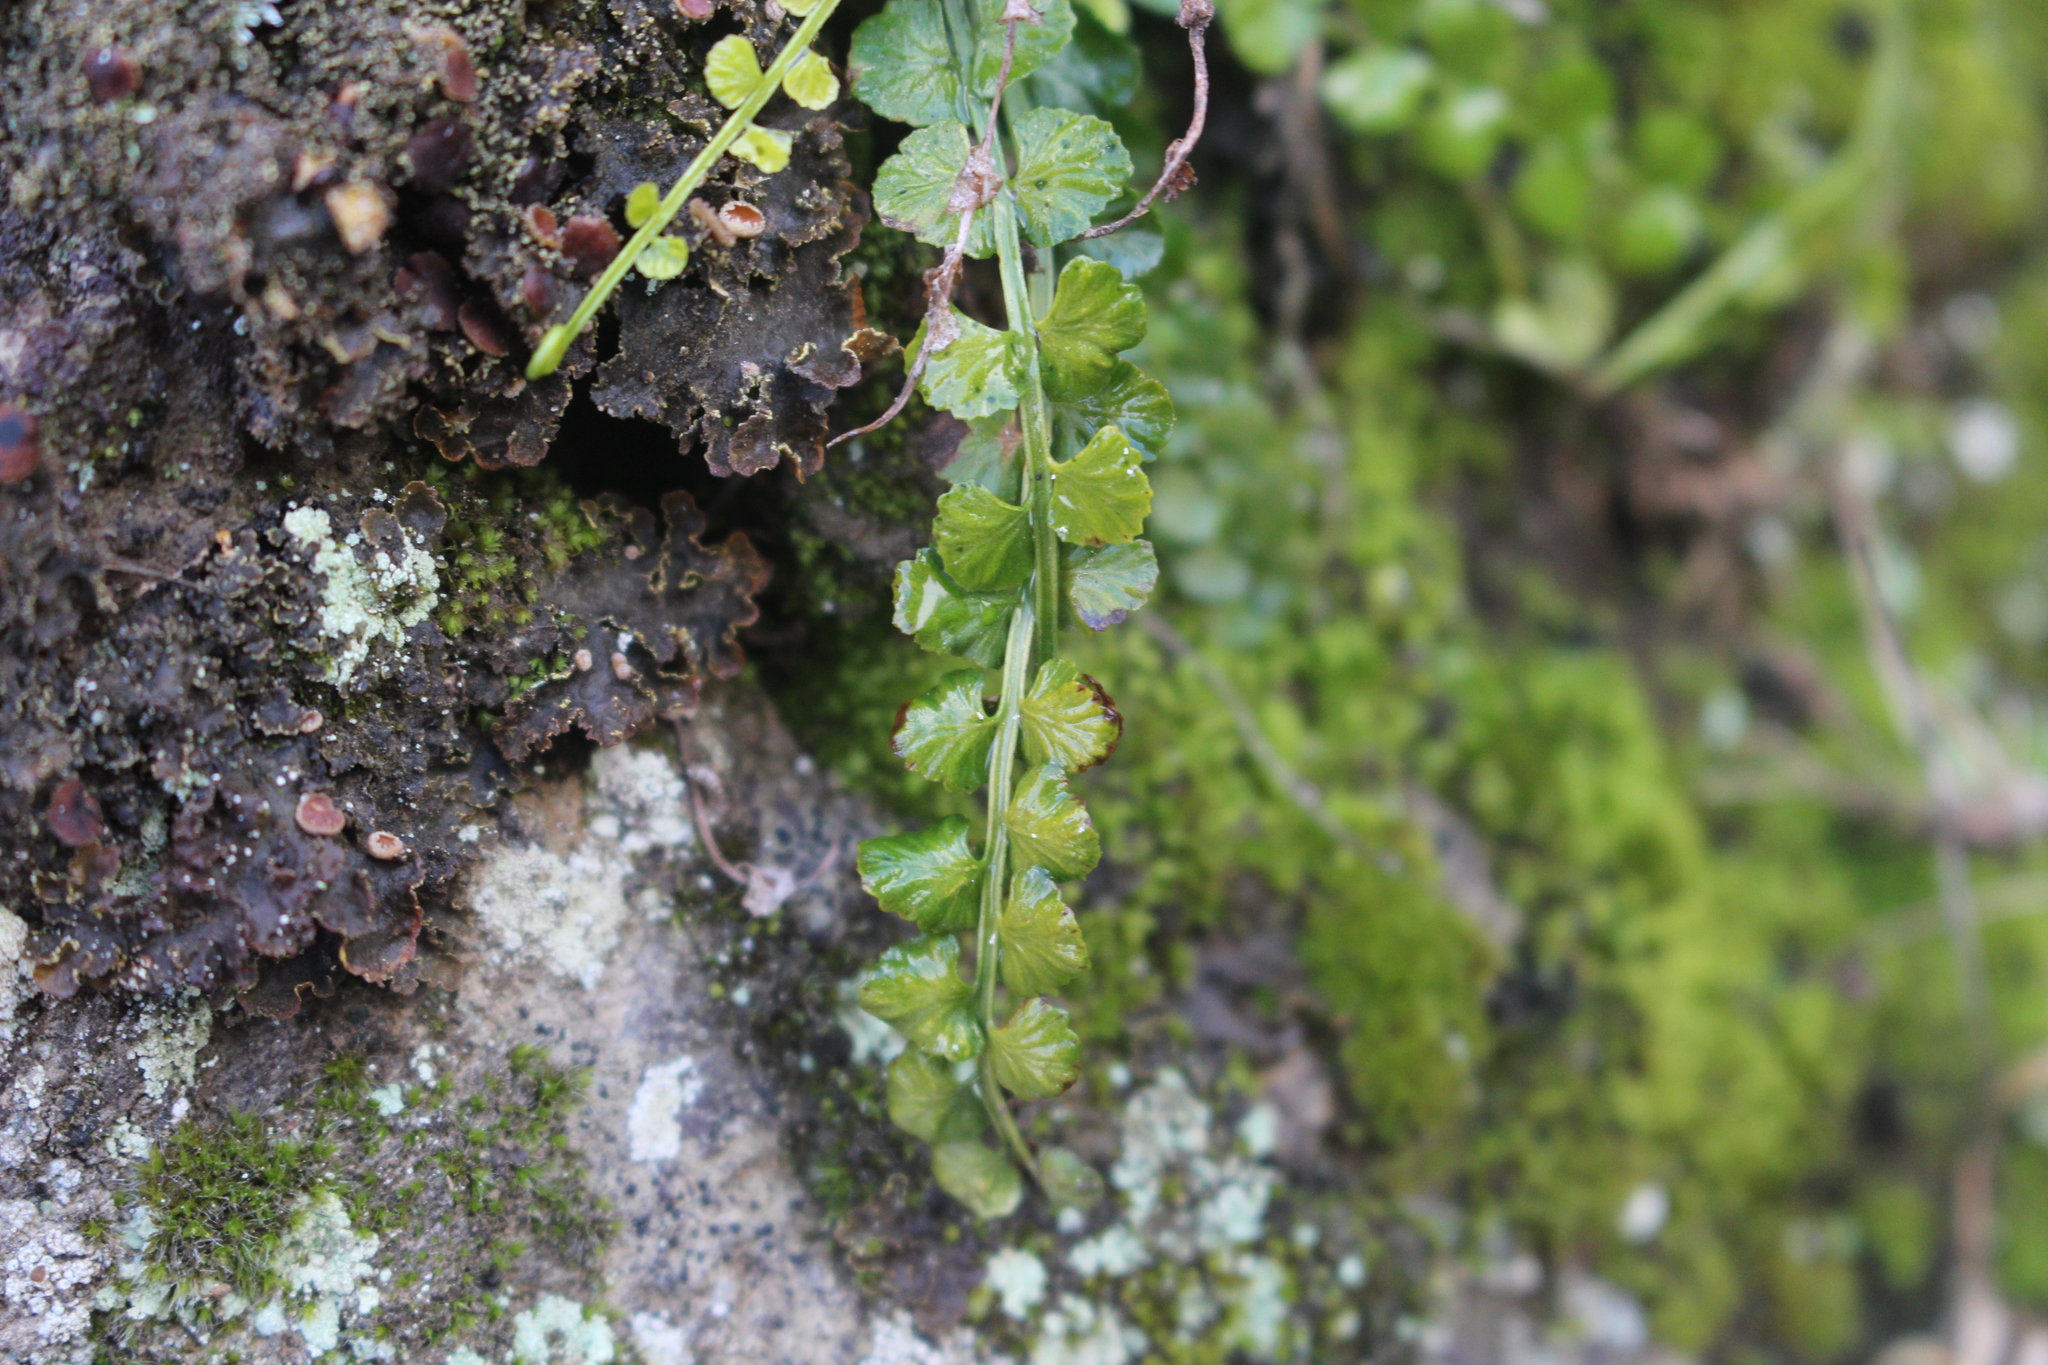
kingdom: Plantae
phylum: Tracheophyta
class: Polypodiopsida
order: Polypodiales
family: Aspleniaceae
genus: Asplenium
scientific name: Asplenium flabellifolium
